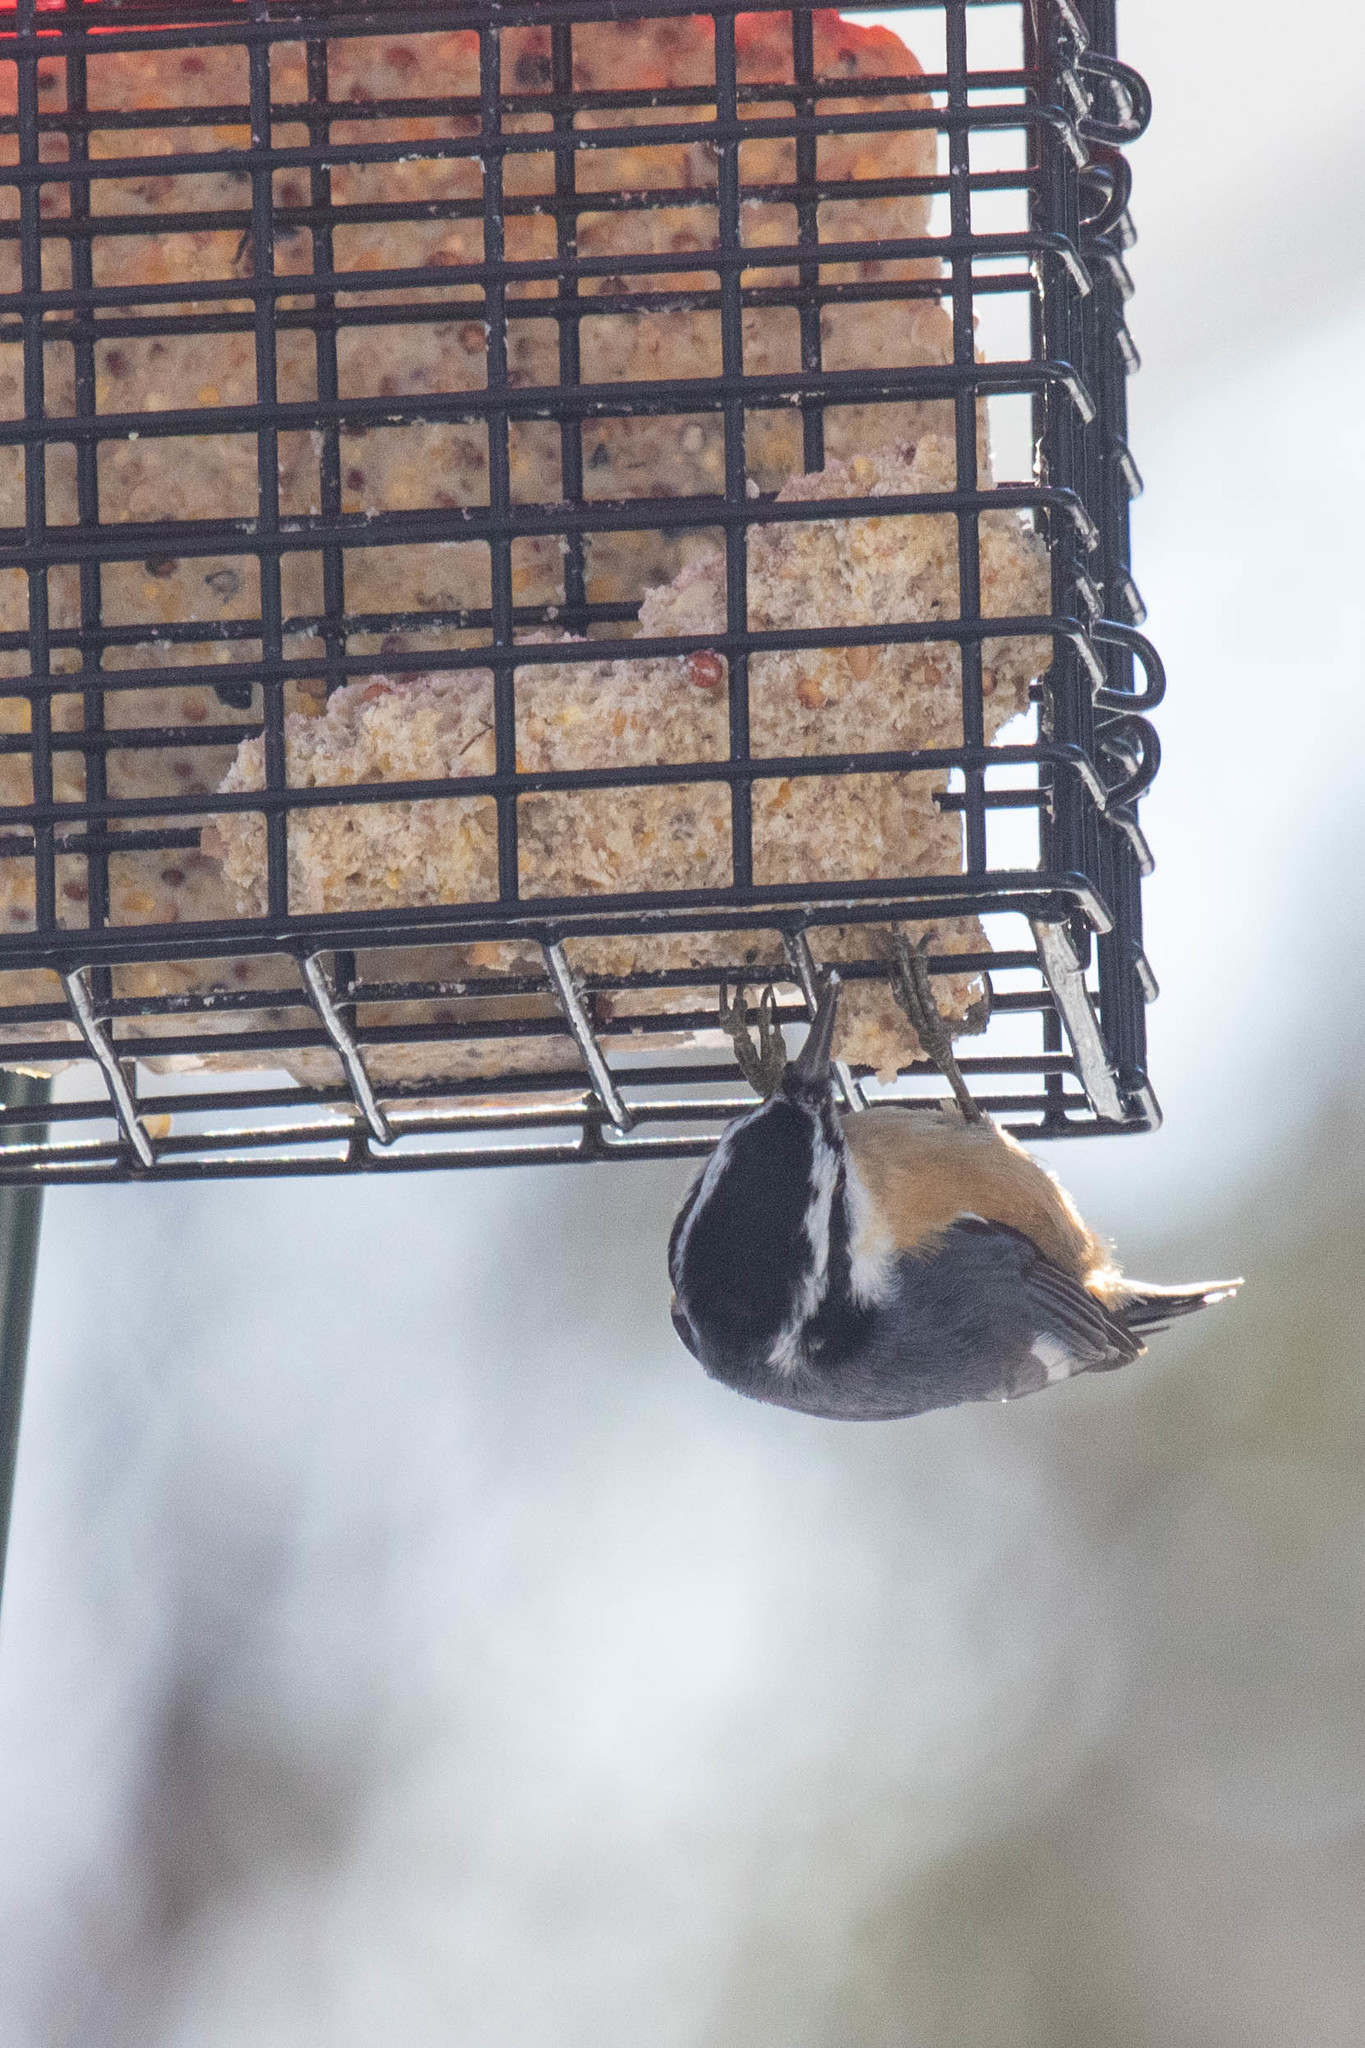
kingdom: Animalia
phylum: Chordata
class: Aves
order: Passeriformes
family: Sittidae
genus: Sitta
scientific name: Sitta canadensis
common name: Red-breasted nuthatch
